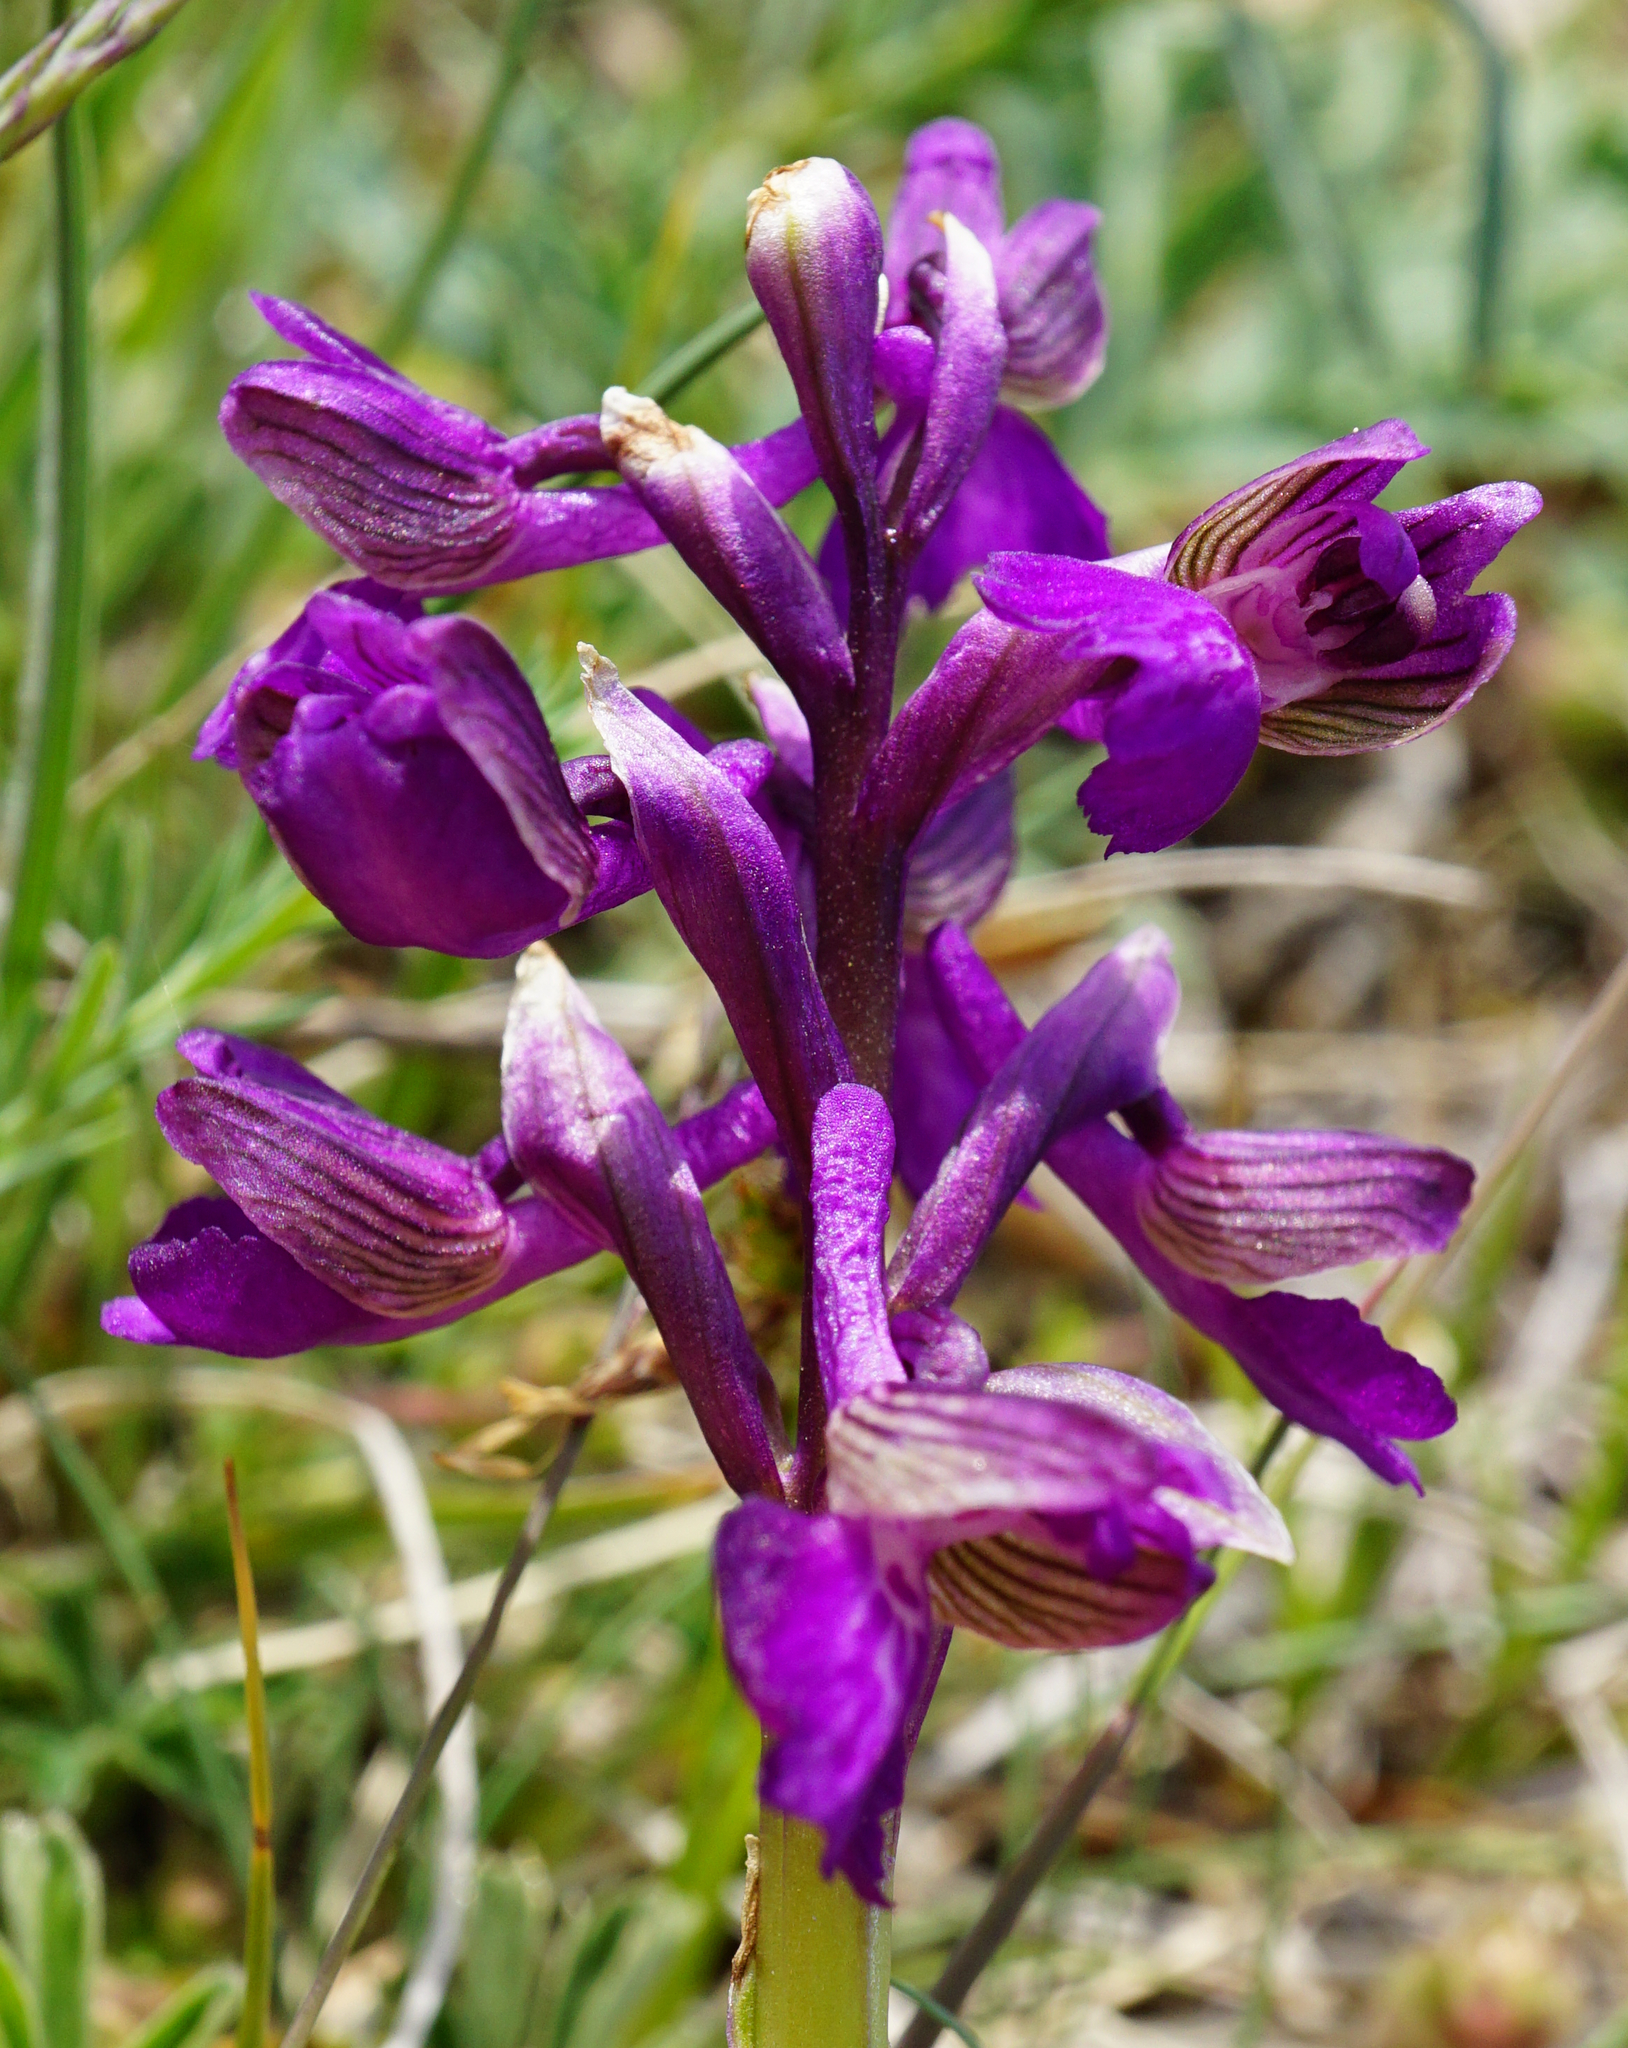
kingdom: Plantae
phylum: Tracheophyta
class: Liliopsida
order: Asparagales
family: Orchidaceae
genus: Anacamptis
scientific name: Anacamptis morio
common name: Green-winged orchid
